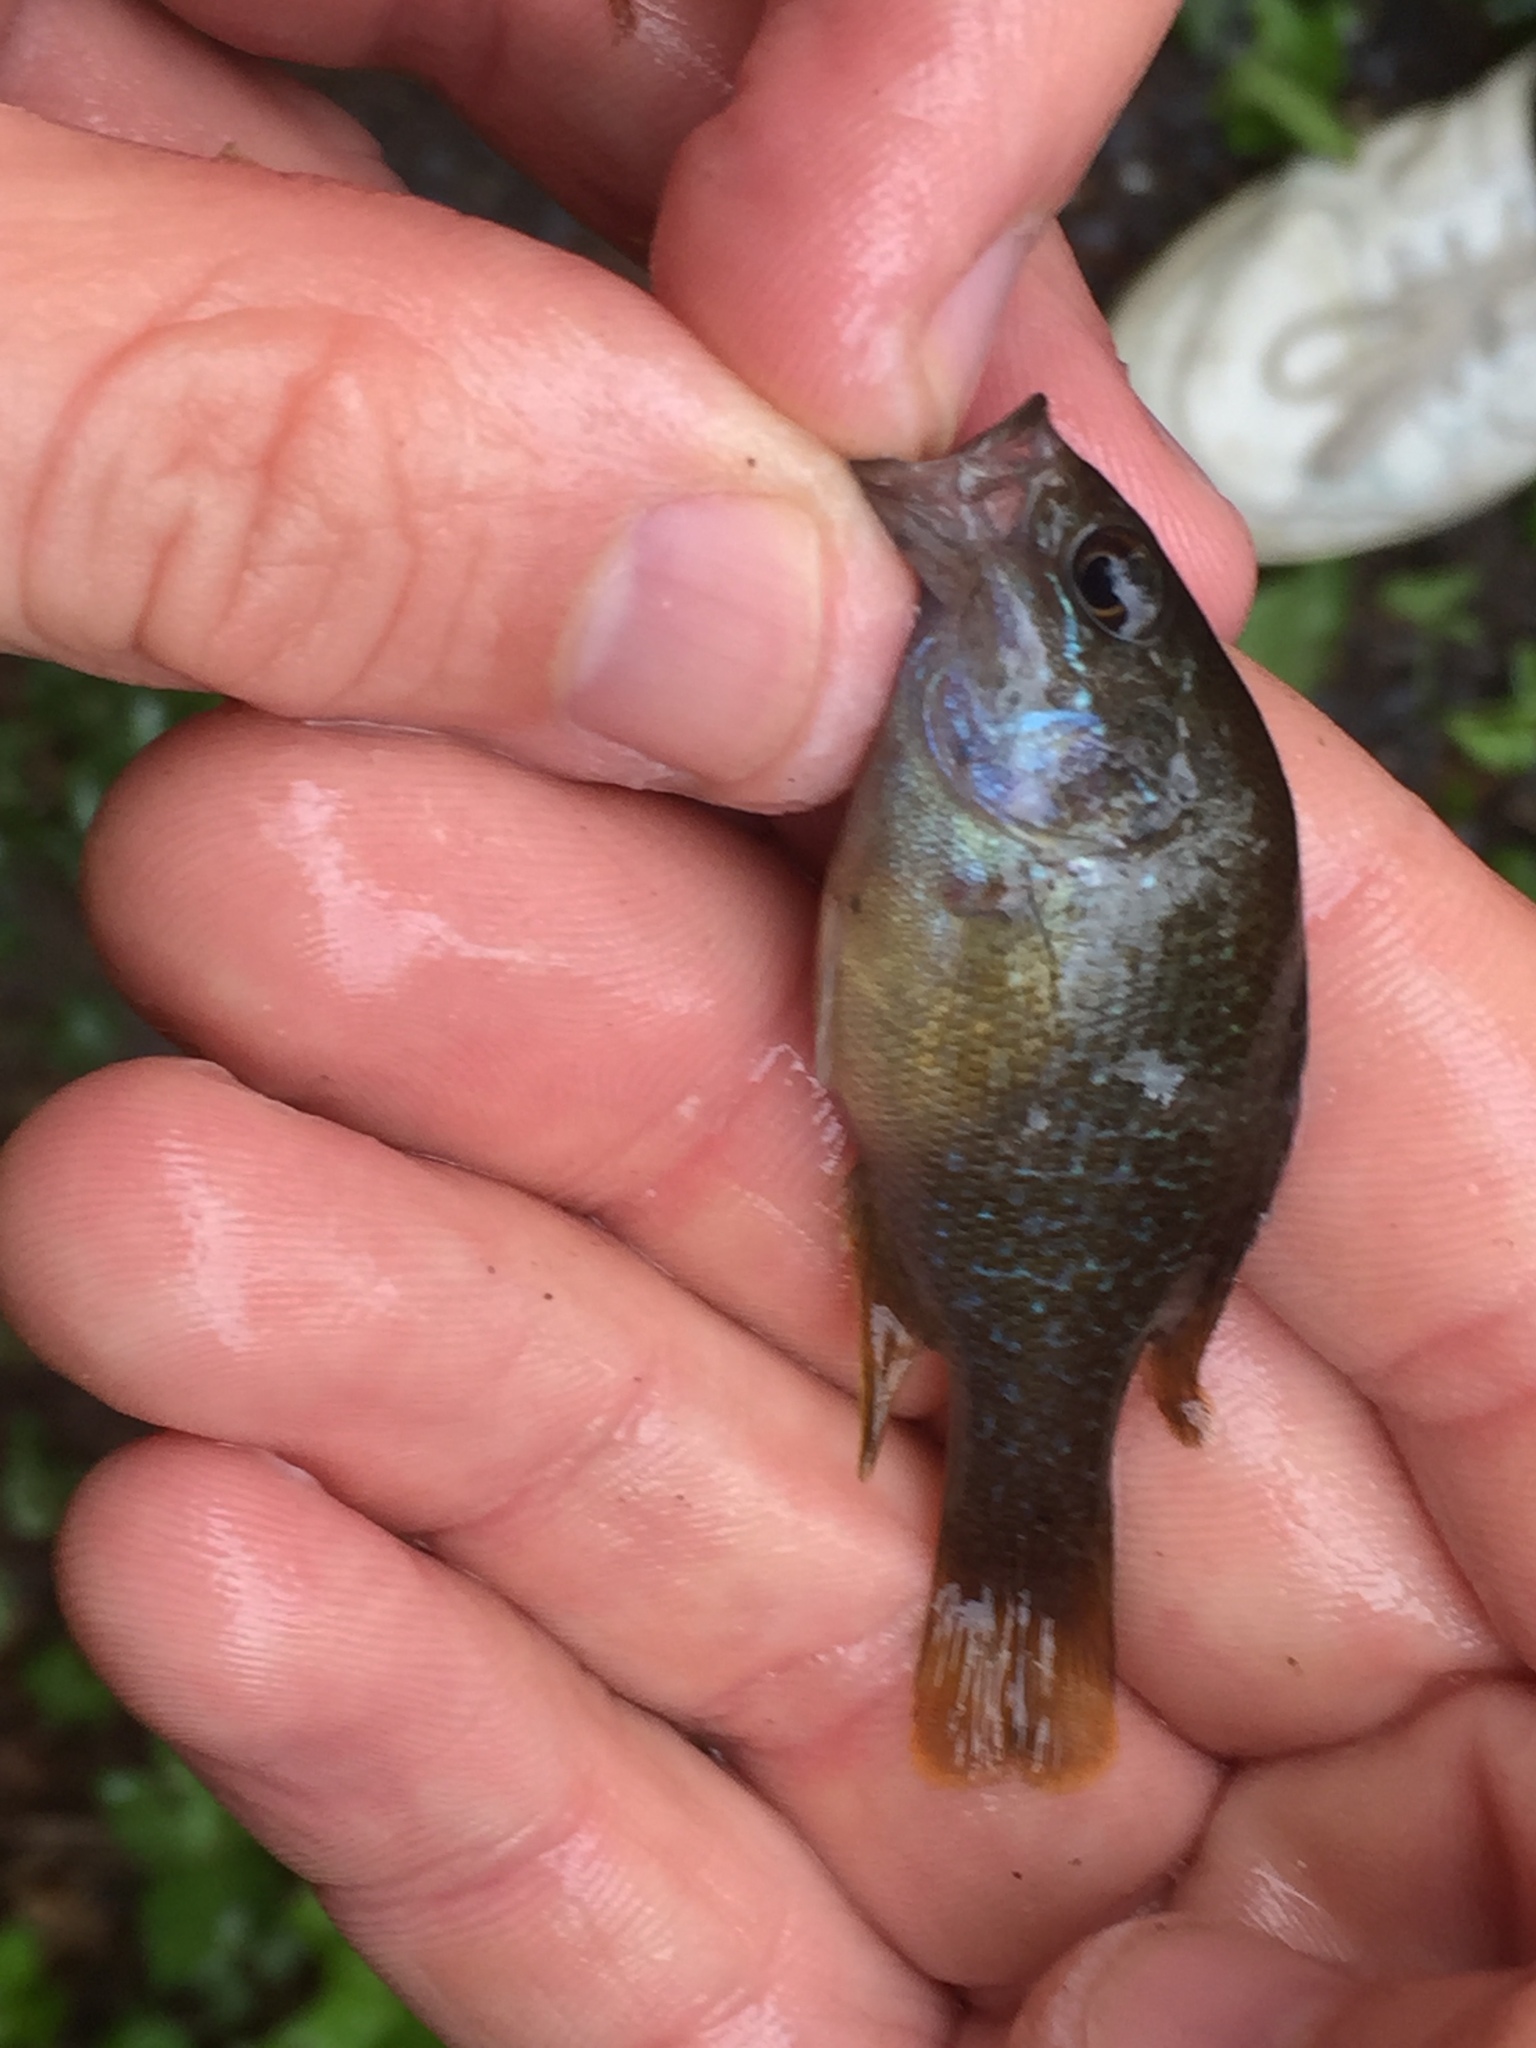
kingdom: Animalia
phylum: Chordata
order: Perciformes
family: Centrarchidae
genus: Lepomis
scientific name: Lepomis cyanellus
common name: Green sunfish
